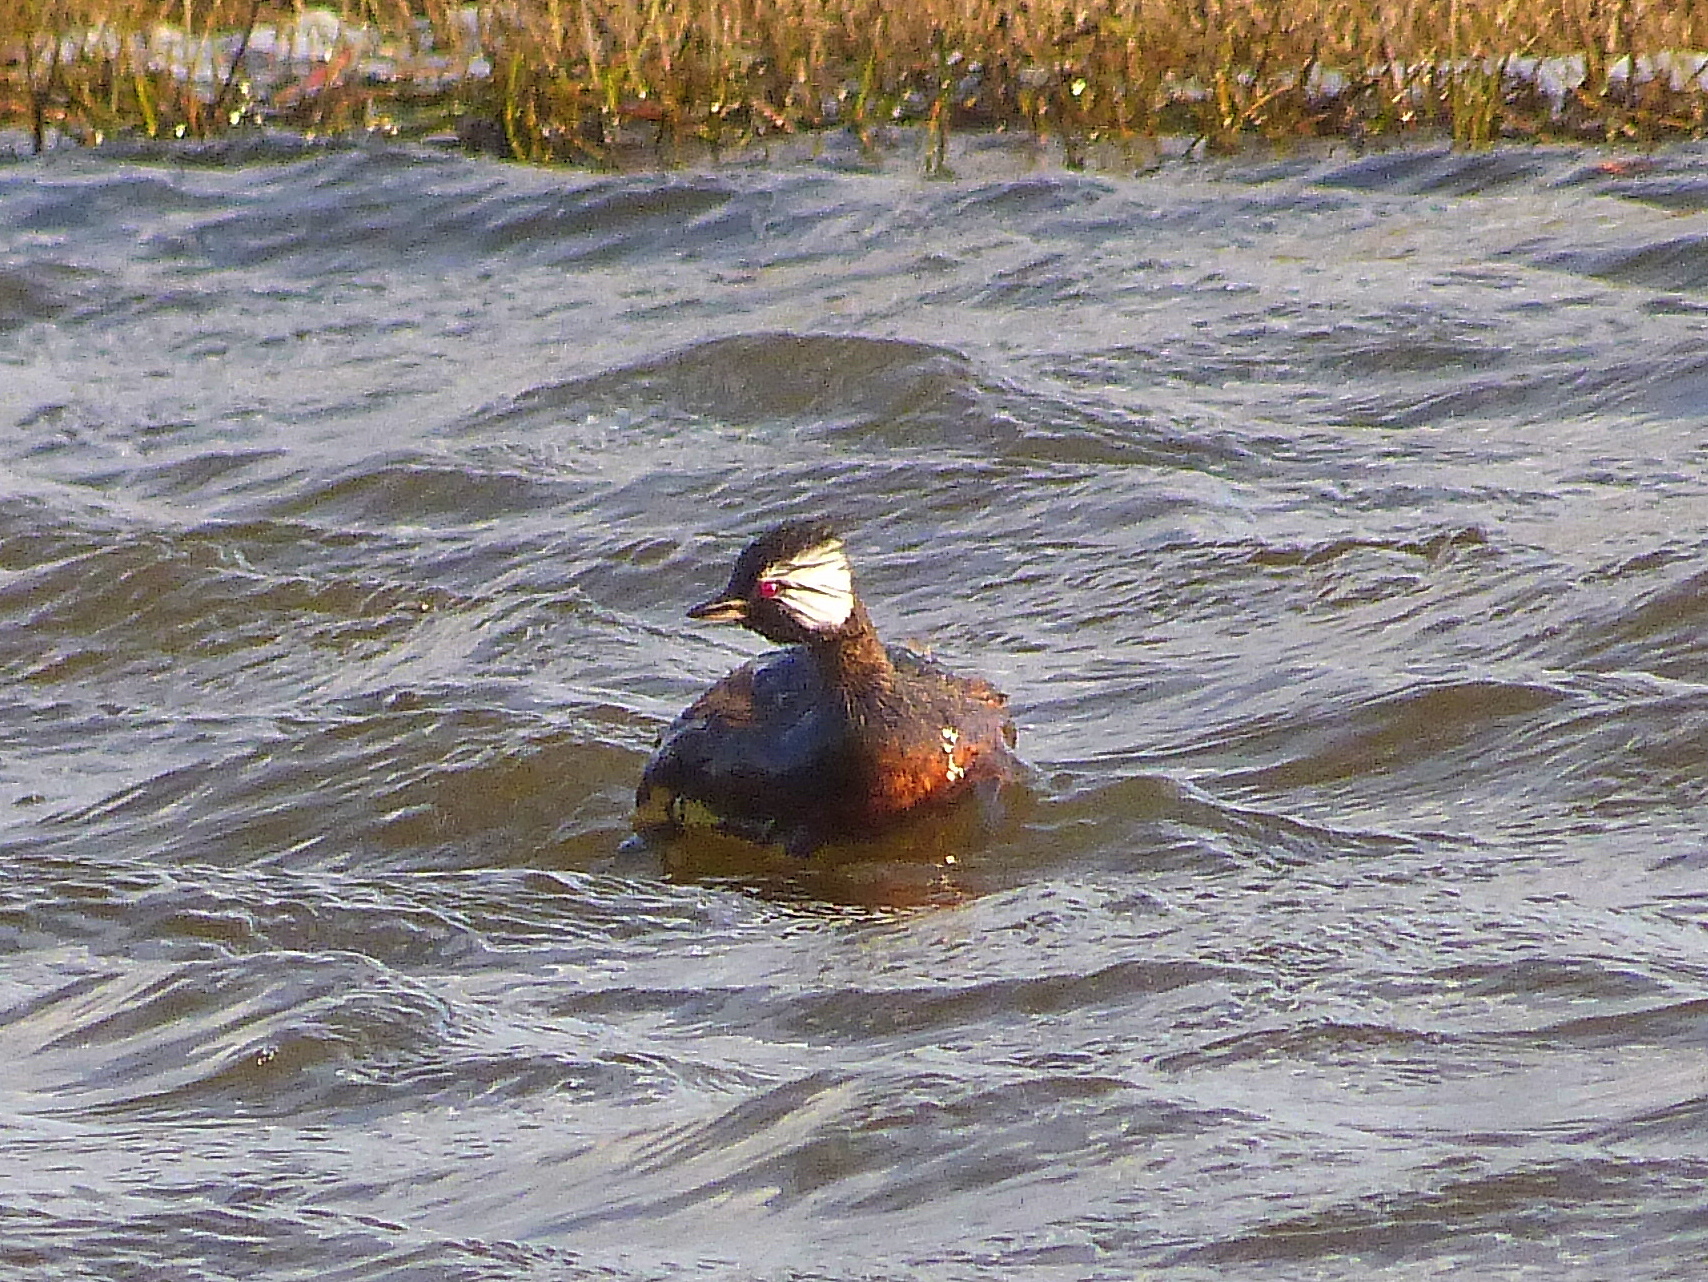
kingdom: Animalia
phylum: Chordata
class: Aves
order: Podicipediformes
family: Podicipedidae
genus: Rollandia
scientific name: Rollandia rolland
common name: White-tufted grebe
